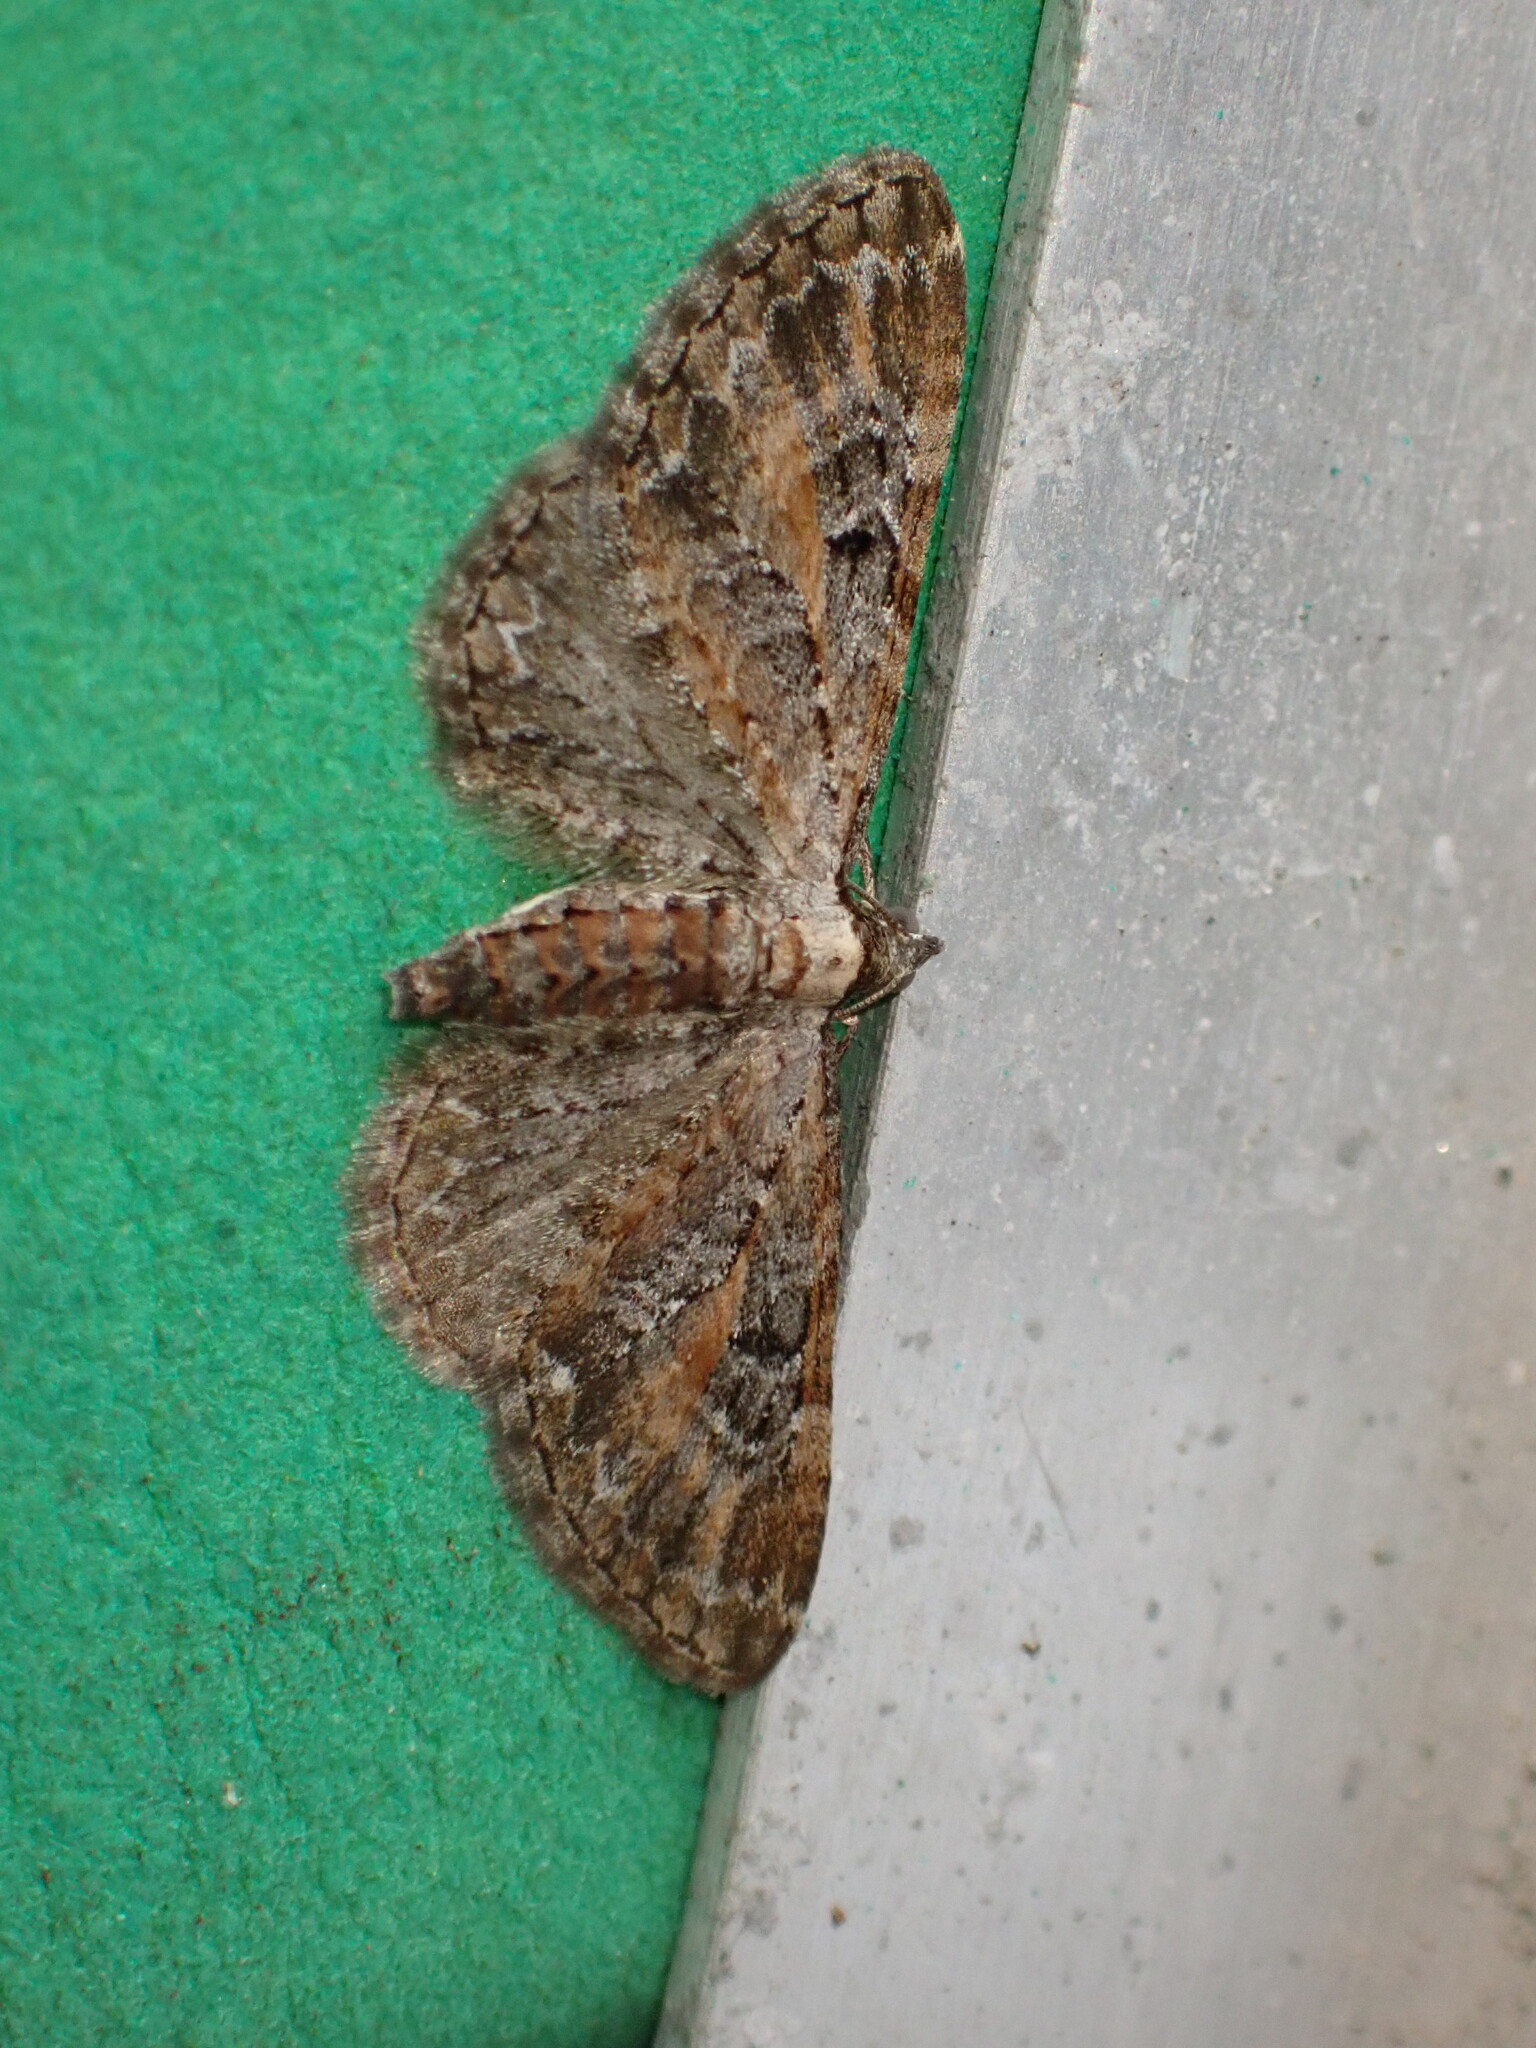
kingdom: Animalia
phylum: Arthropoda
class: Insecta
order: Lepidoptera
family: Geometridae
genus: Eupithecia
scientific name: Eupithecia icterata
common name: Tawny speckled pug
